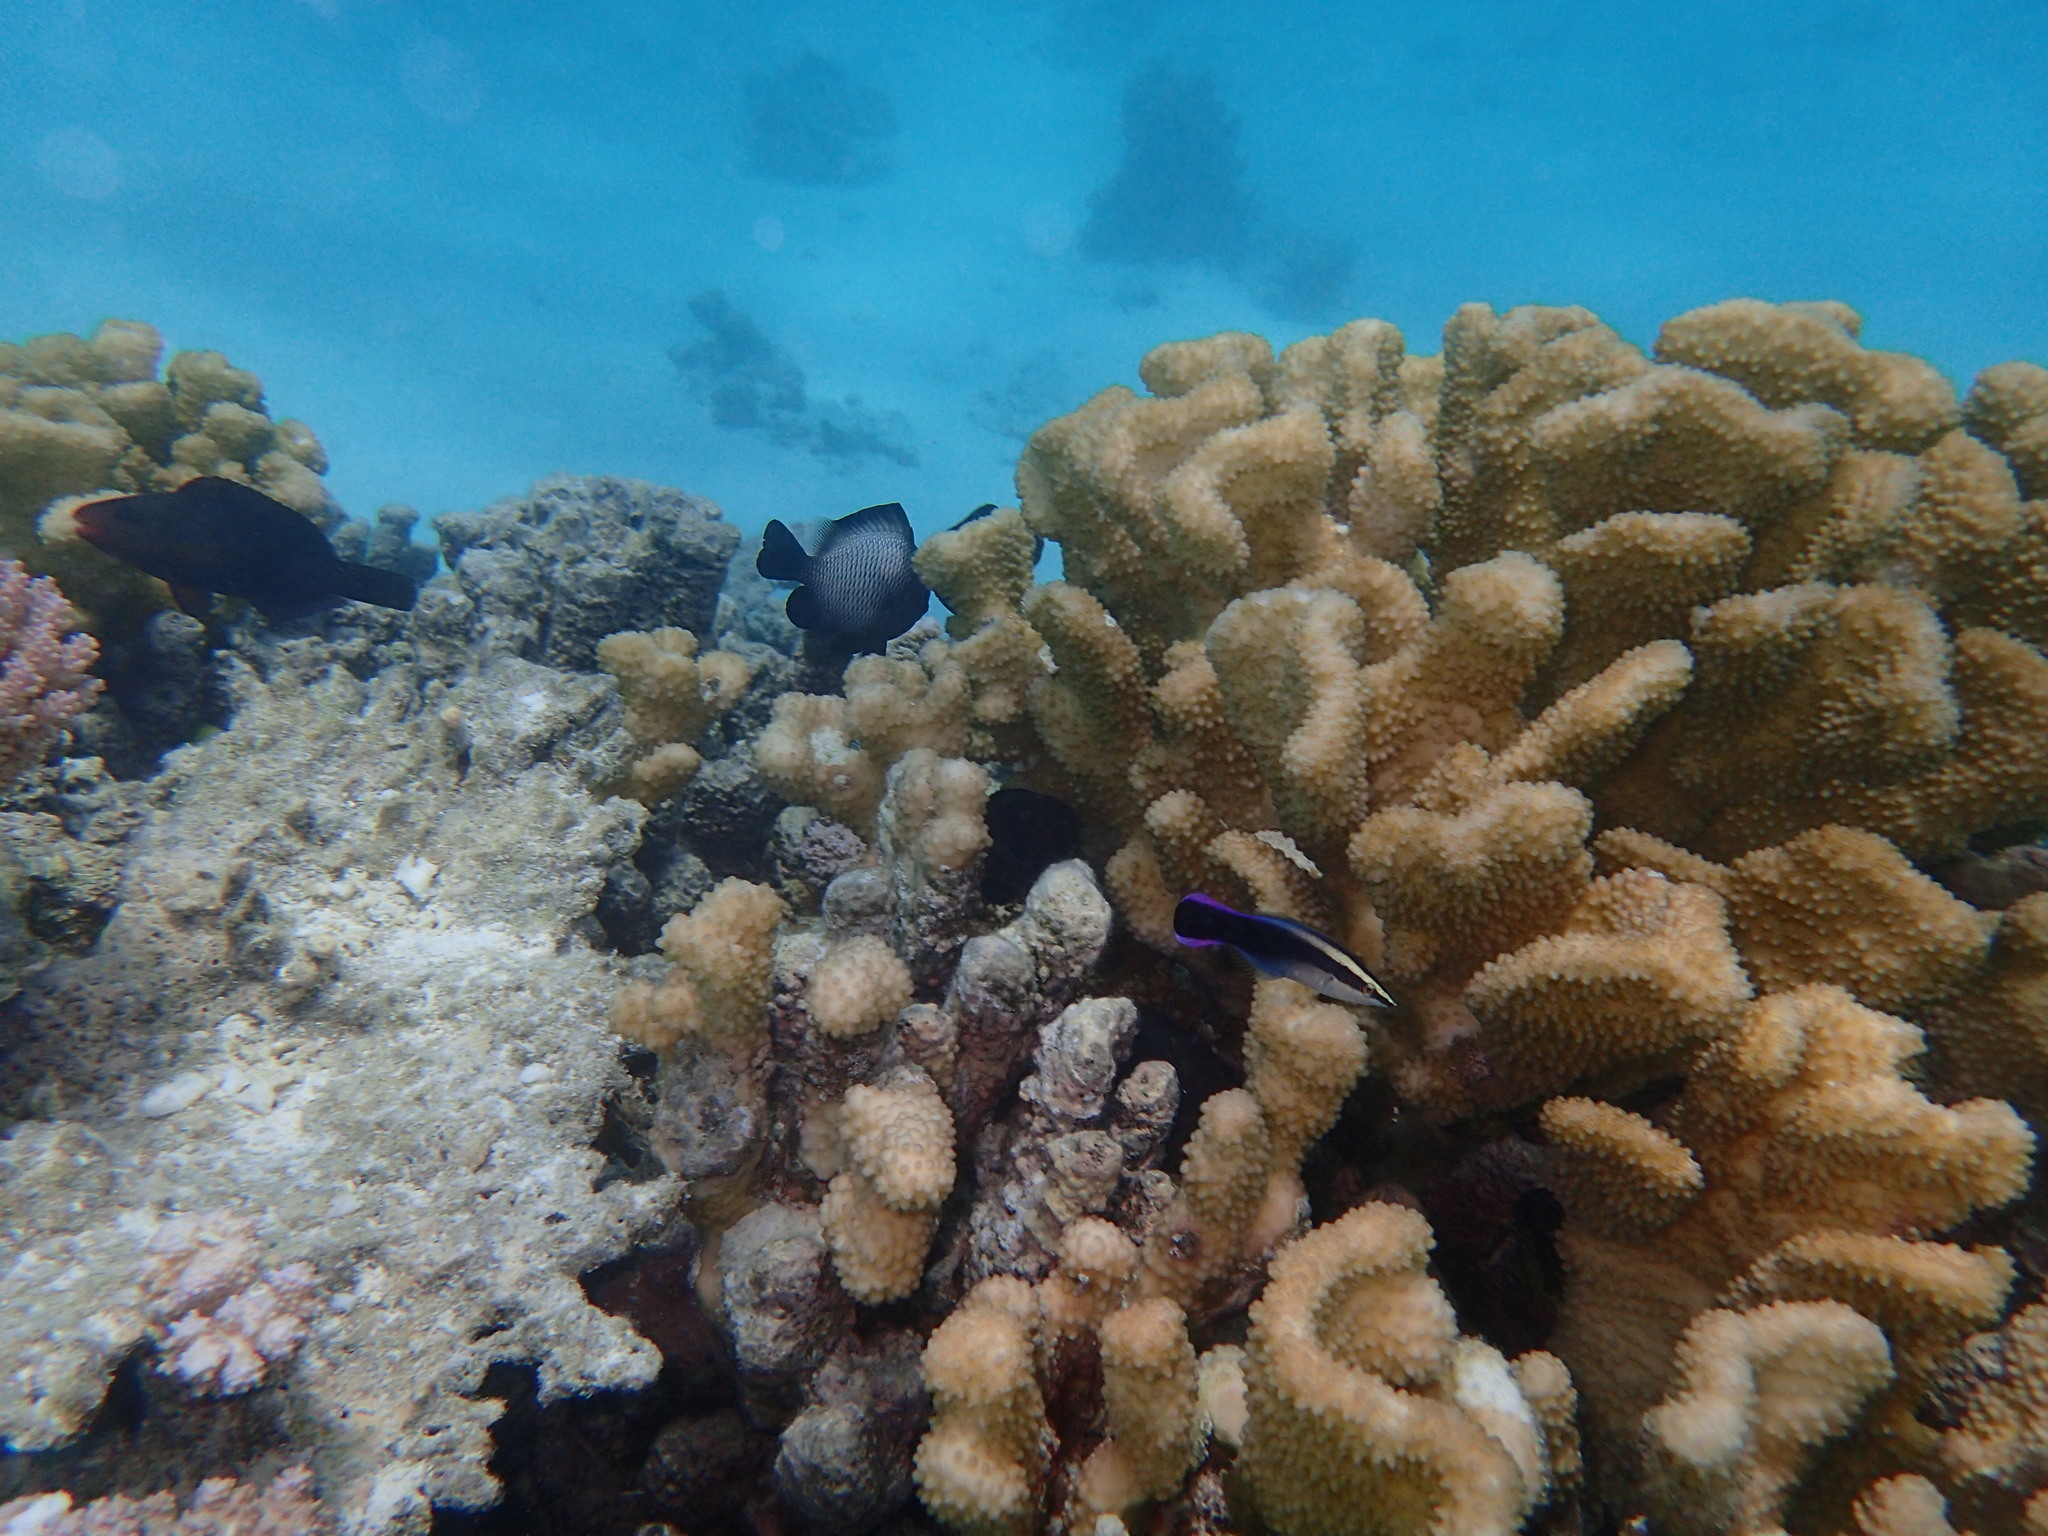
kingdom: Animalia
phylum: Chordata
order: Perciformes
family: Labridae
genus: Labroides
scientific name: Labroides phthirophagus
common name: Cleaner wrasse
